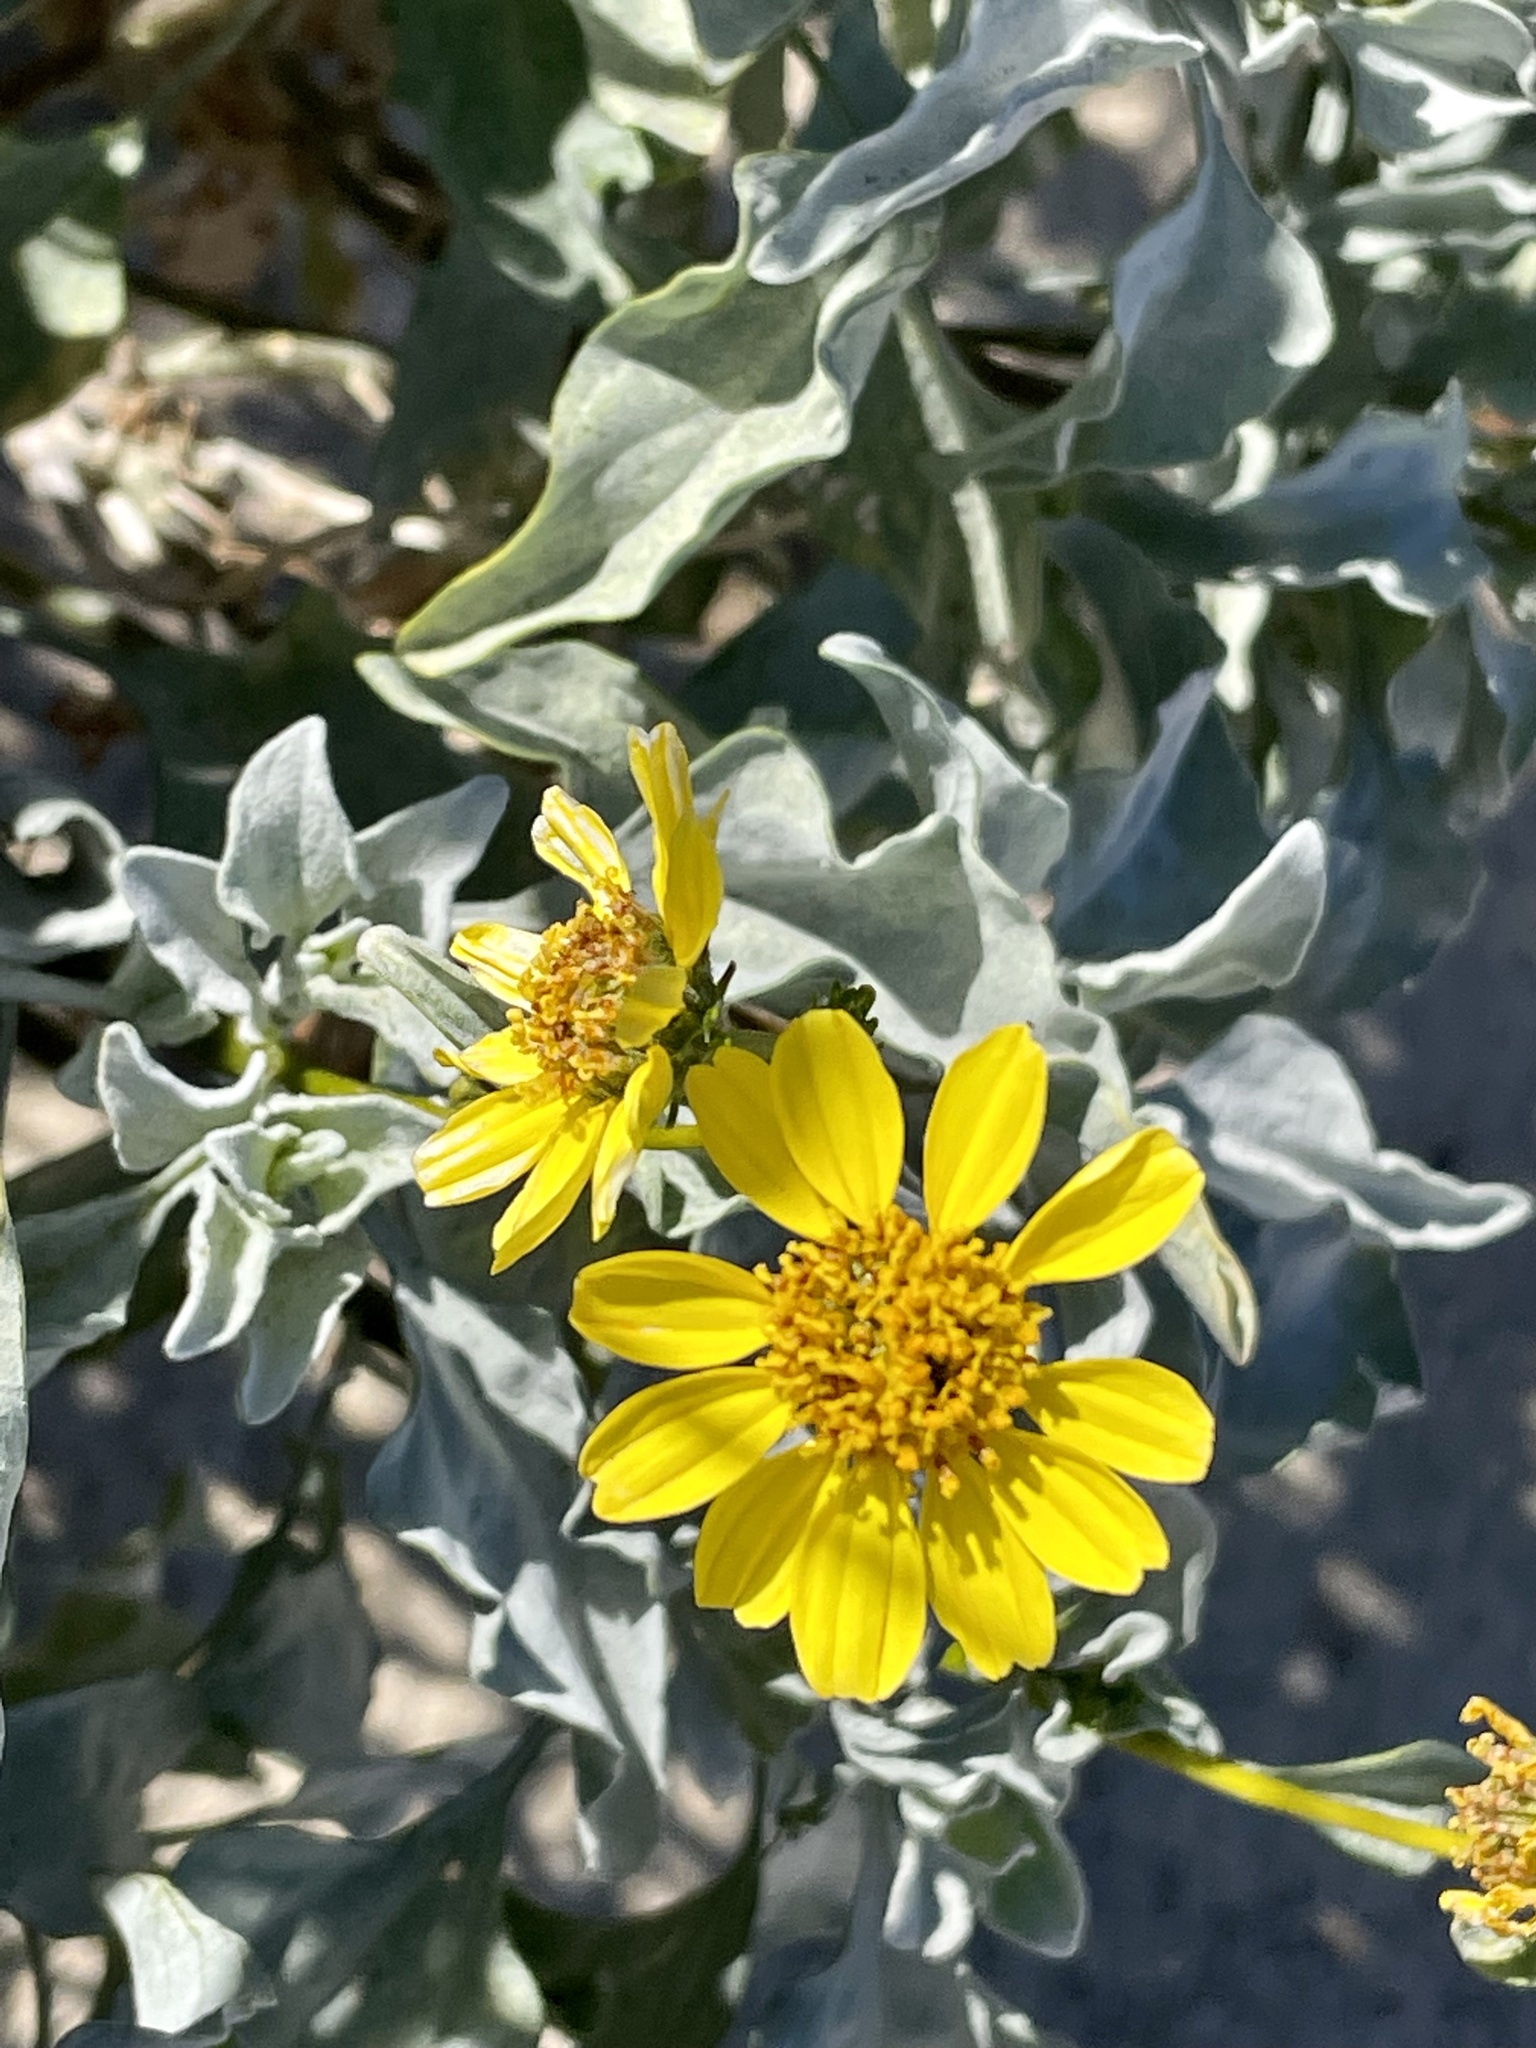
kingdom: Plantae
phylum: Tracheophyta
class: Magnoliopsida
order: Asterales
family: Asteraceae
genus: Encelia
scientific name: Encelia farinosa
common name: Brittlebush
